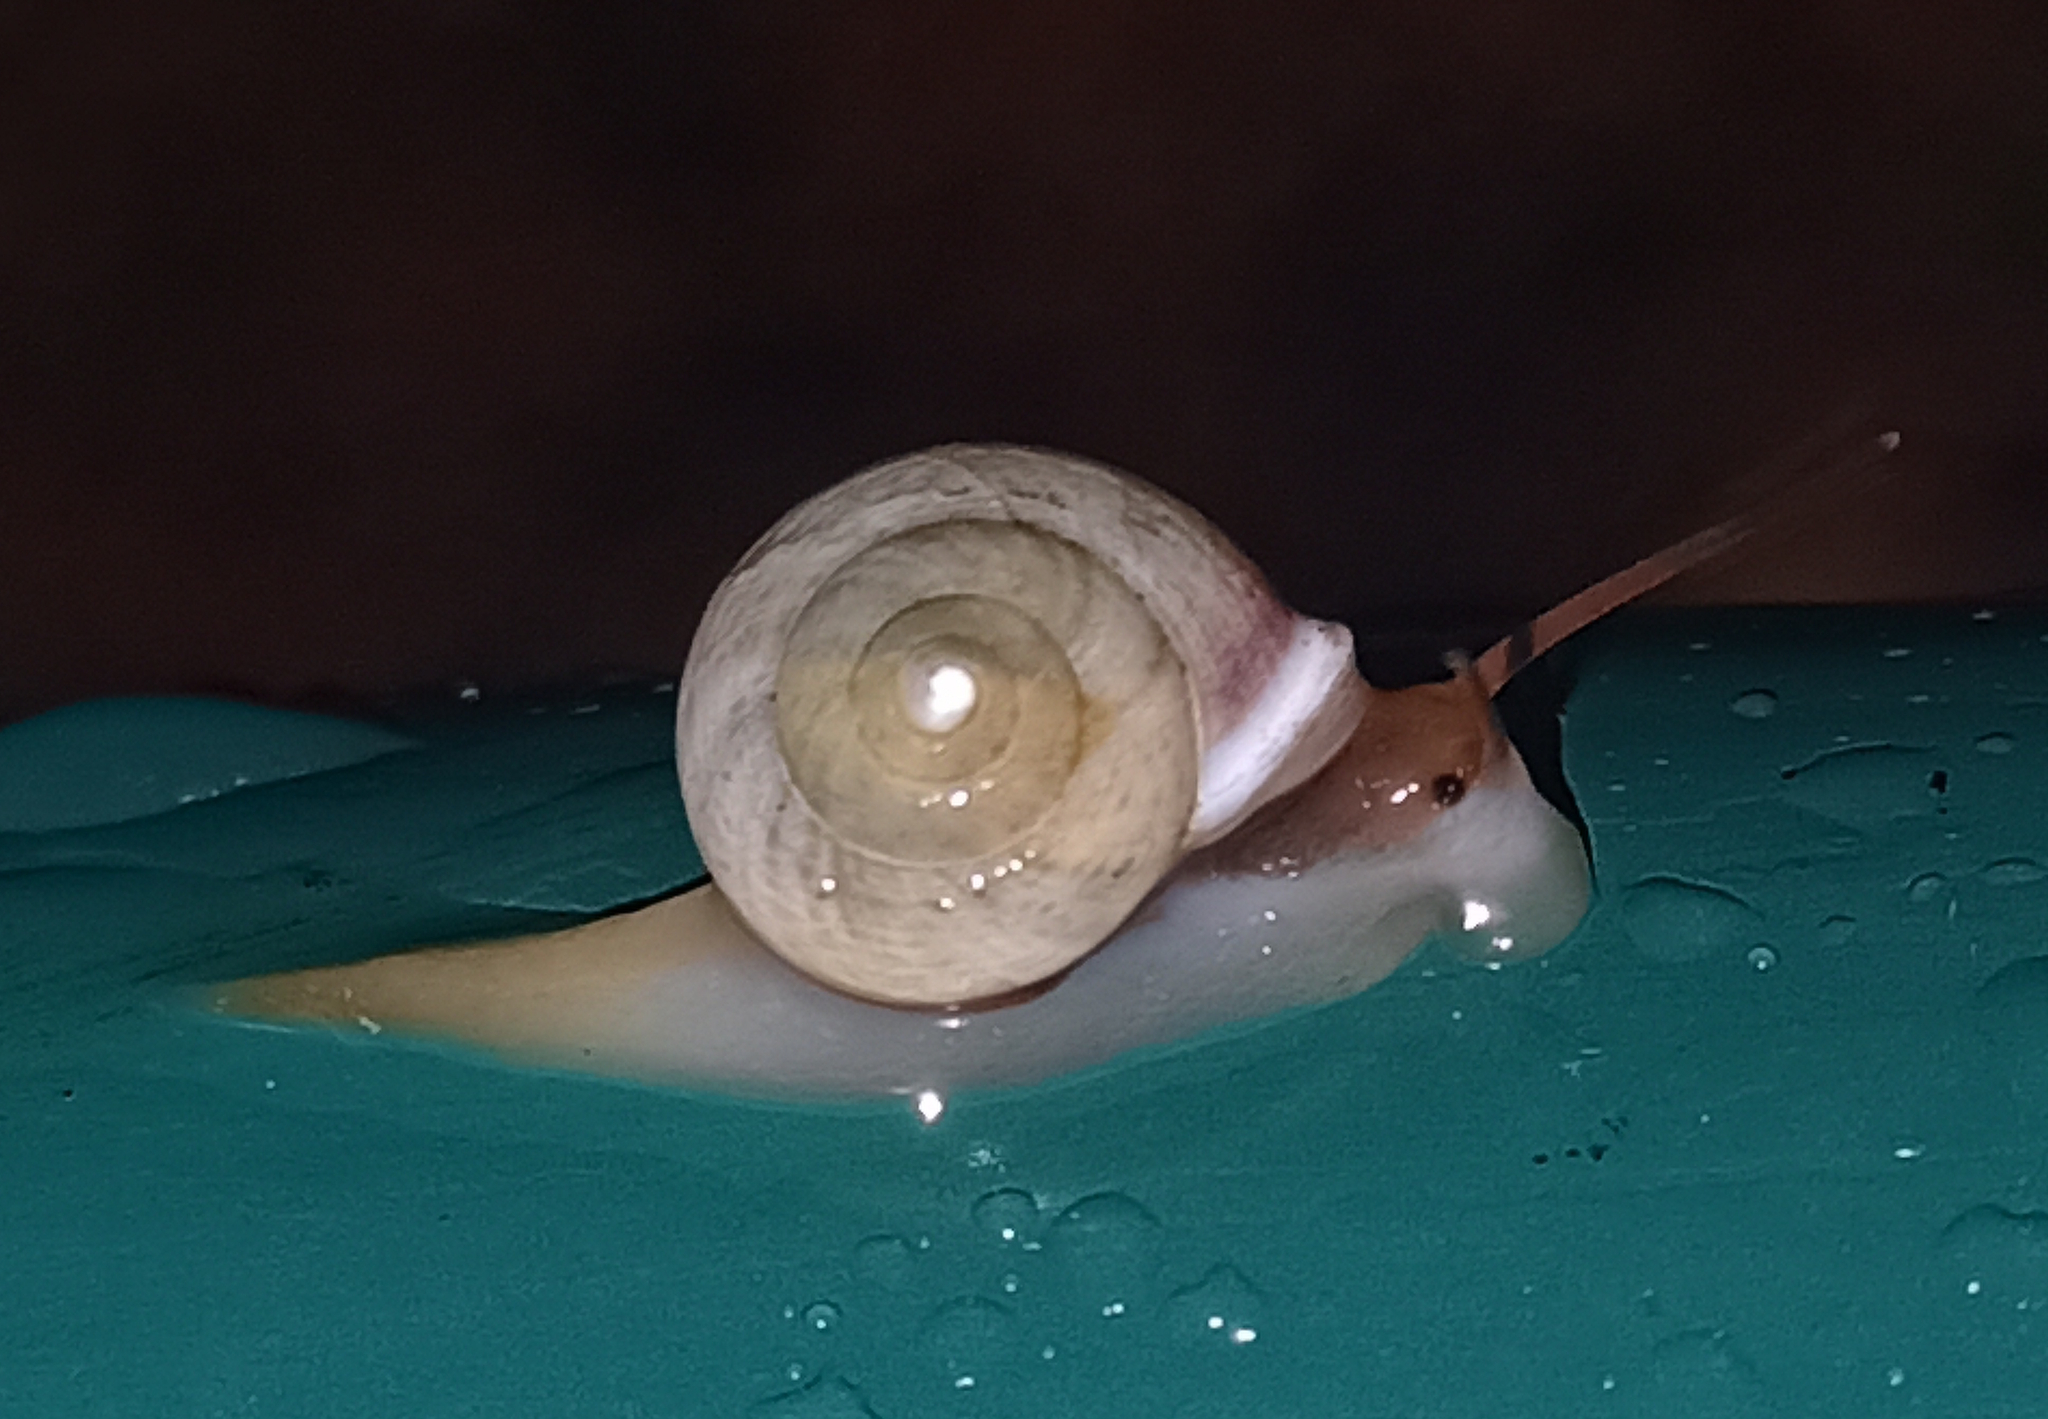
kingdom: Animalia
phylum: Mollusca
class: Gastropoda
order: Cycloneritida
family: Helicinidae
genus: Helicina
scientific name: Helicina boettgeri
